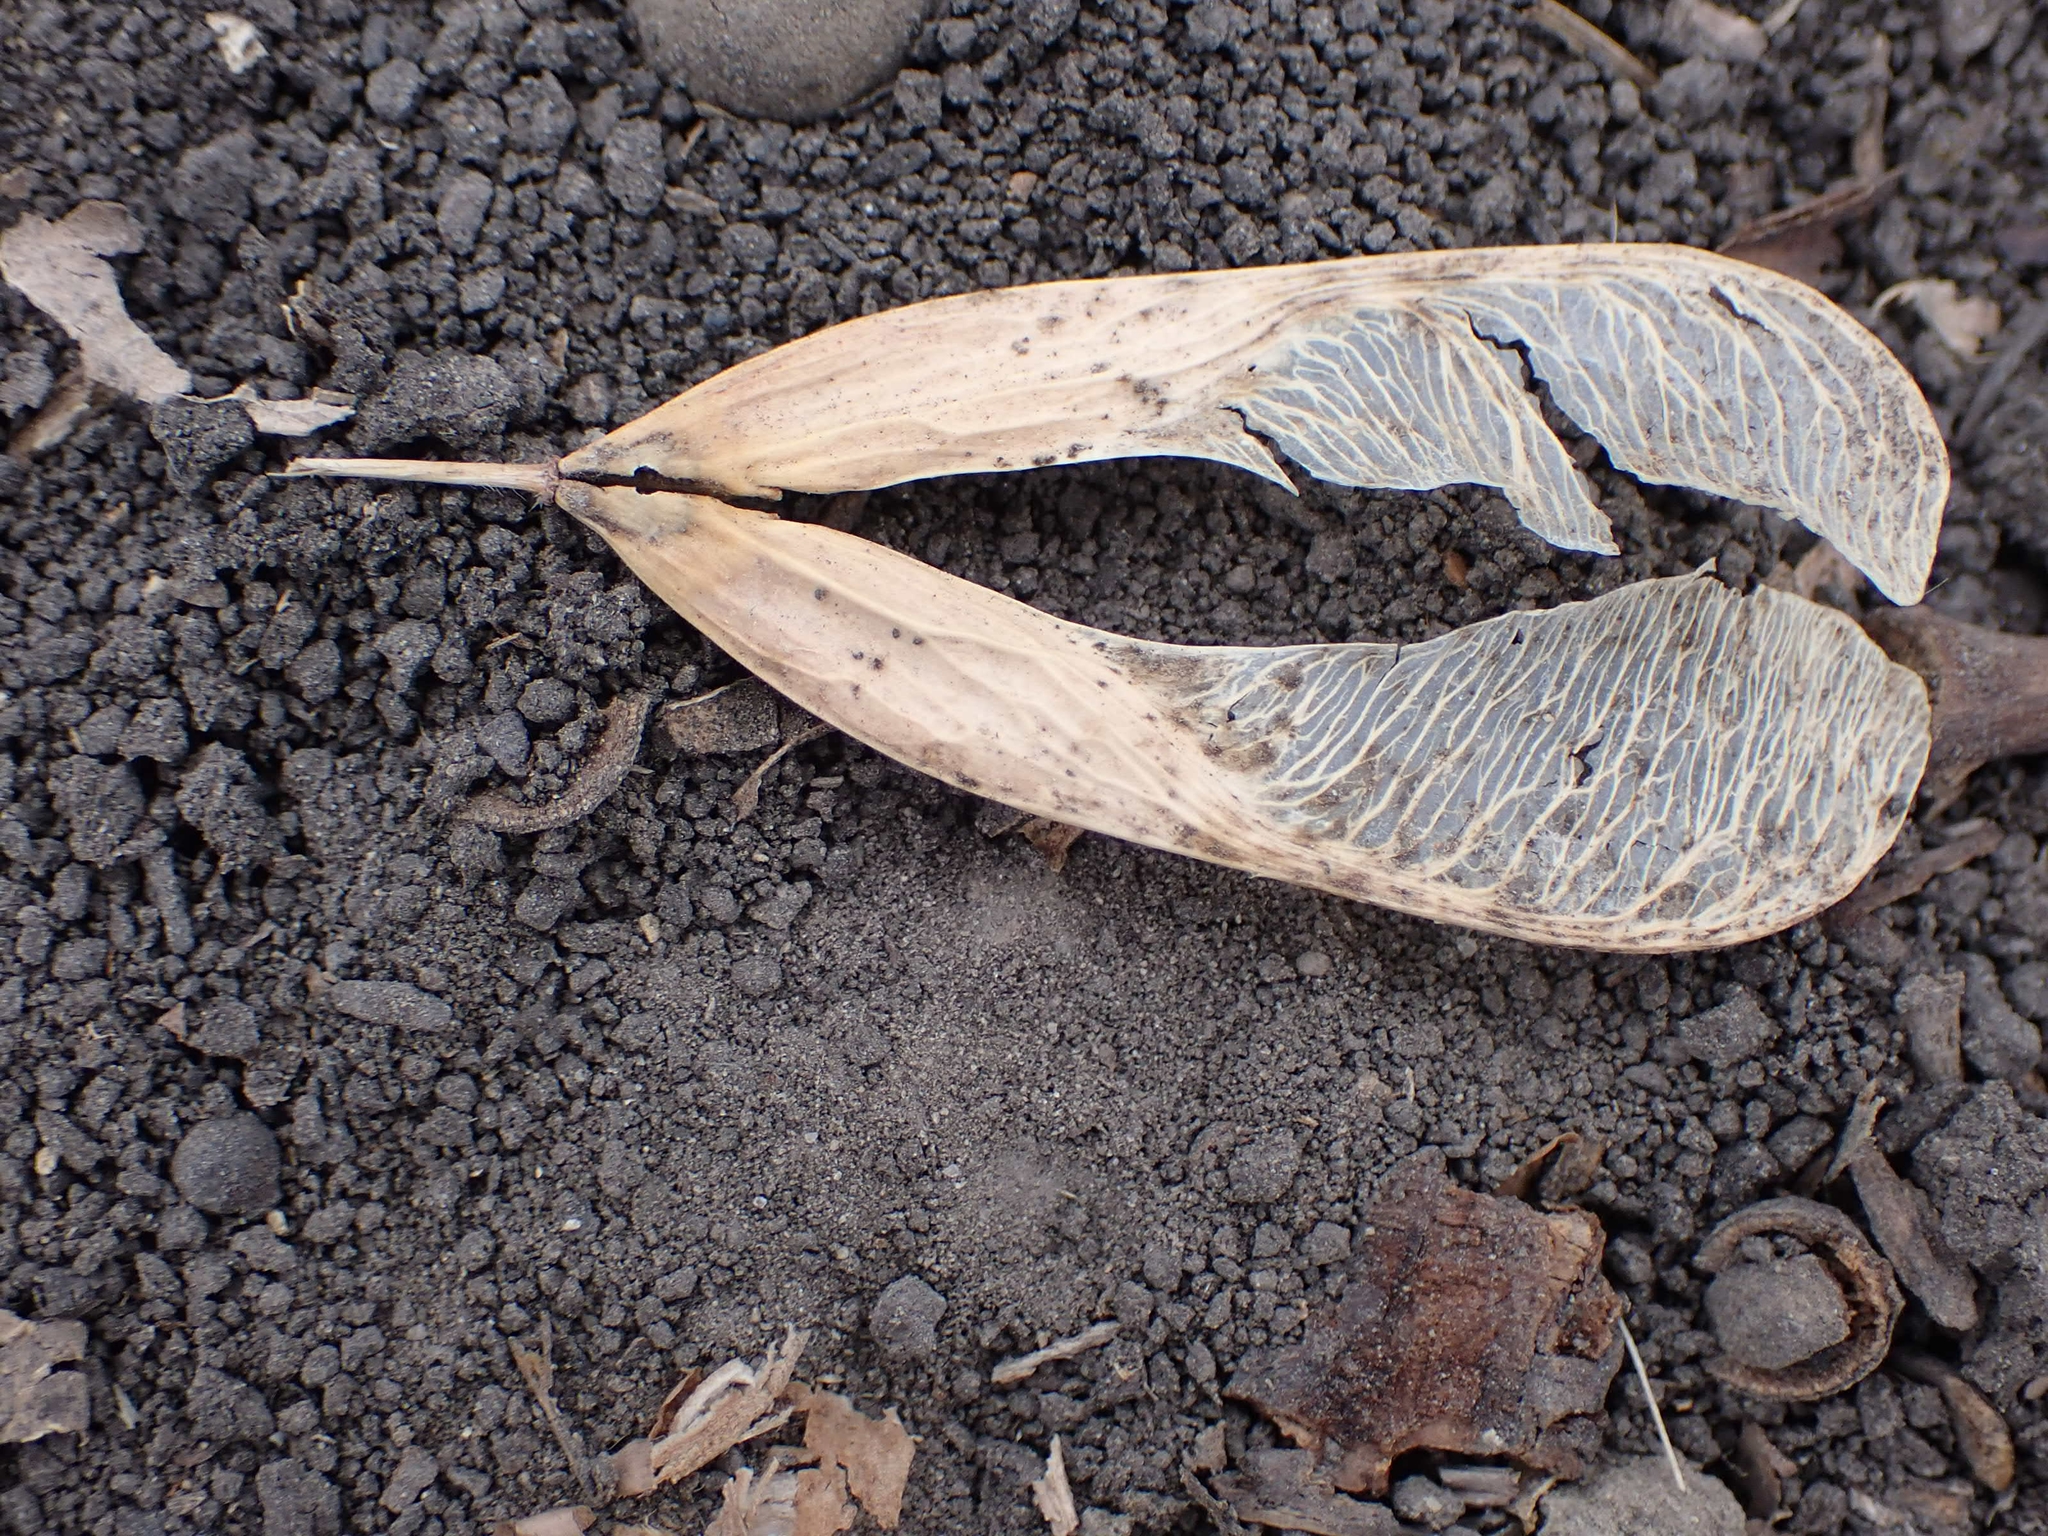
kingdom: Plantae
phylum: Tracheophyta
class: Magnoliopsida
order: Sapindales
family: Sapindaceae
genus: Acer
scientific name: Acer negundo
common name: Ashleaf maple
